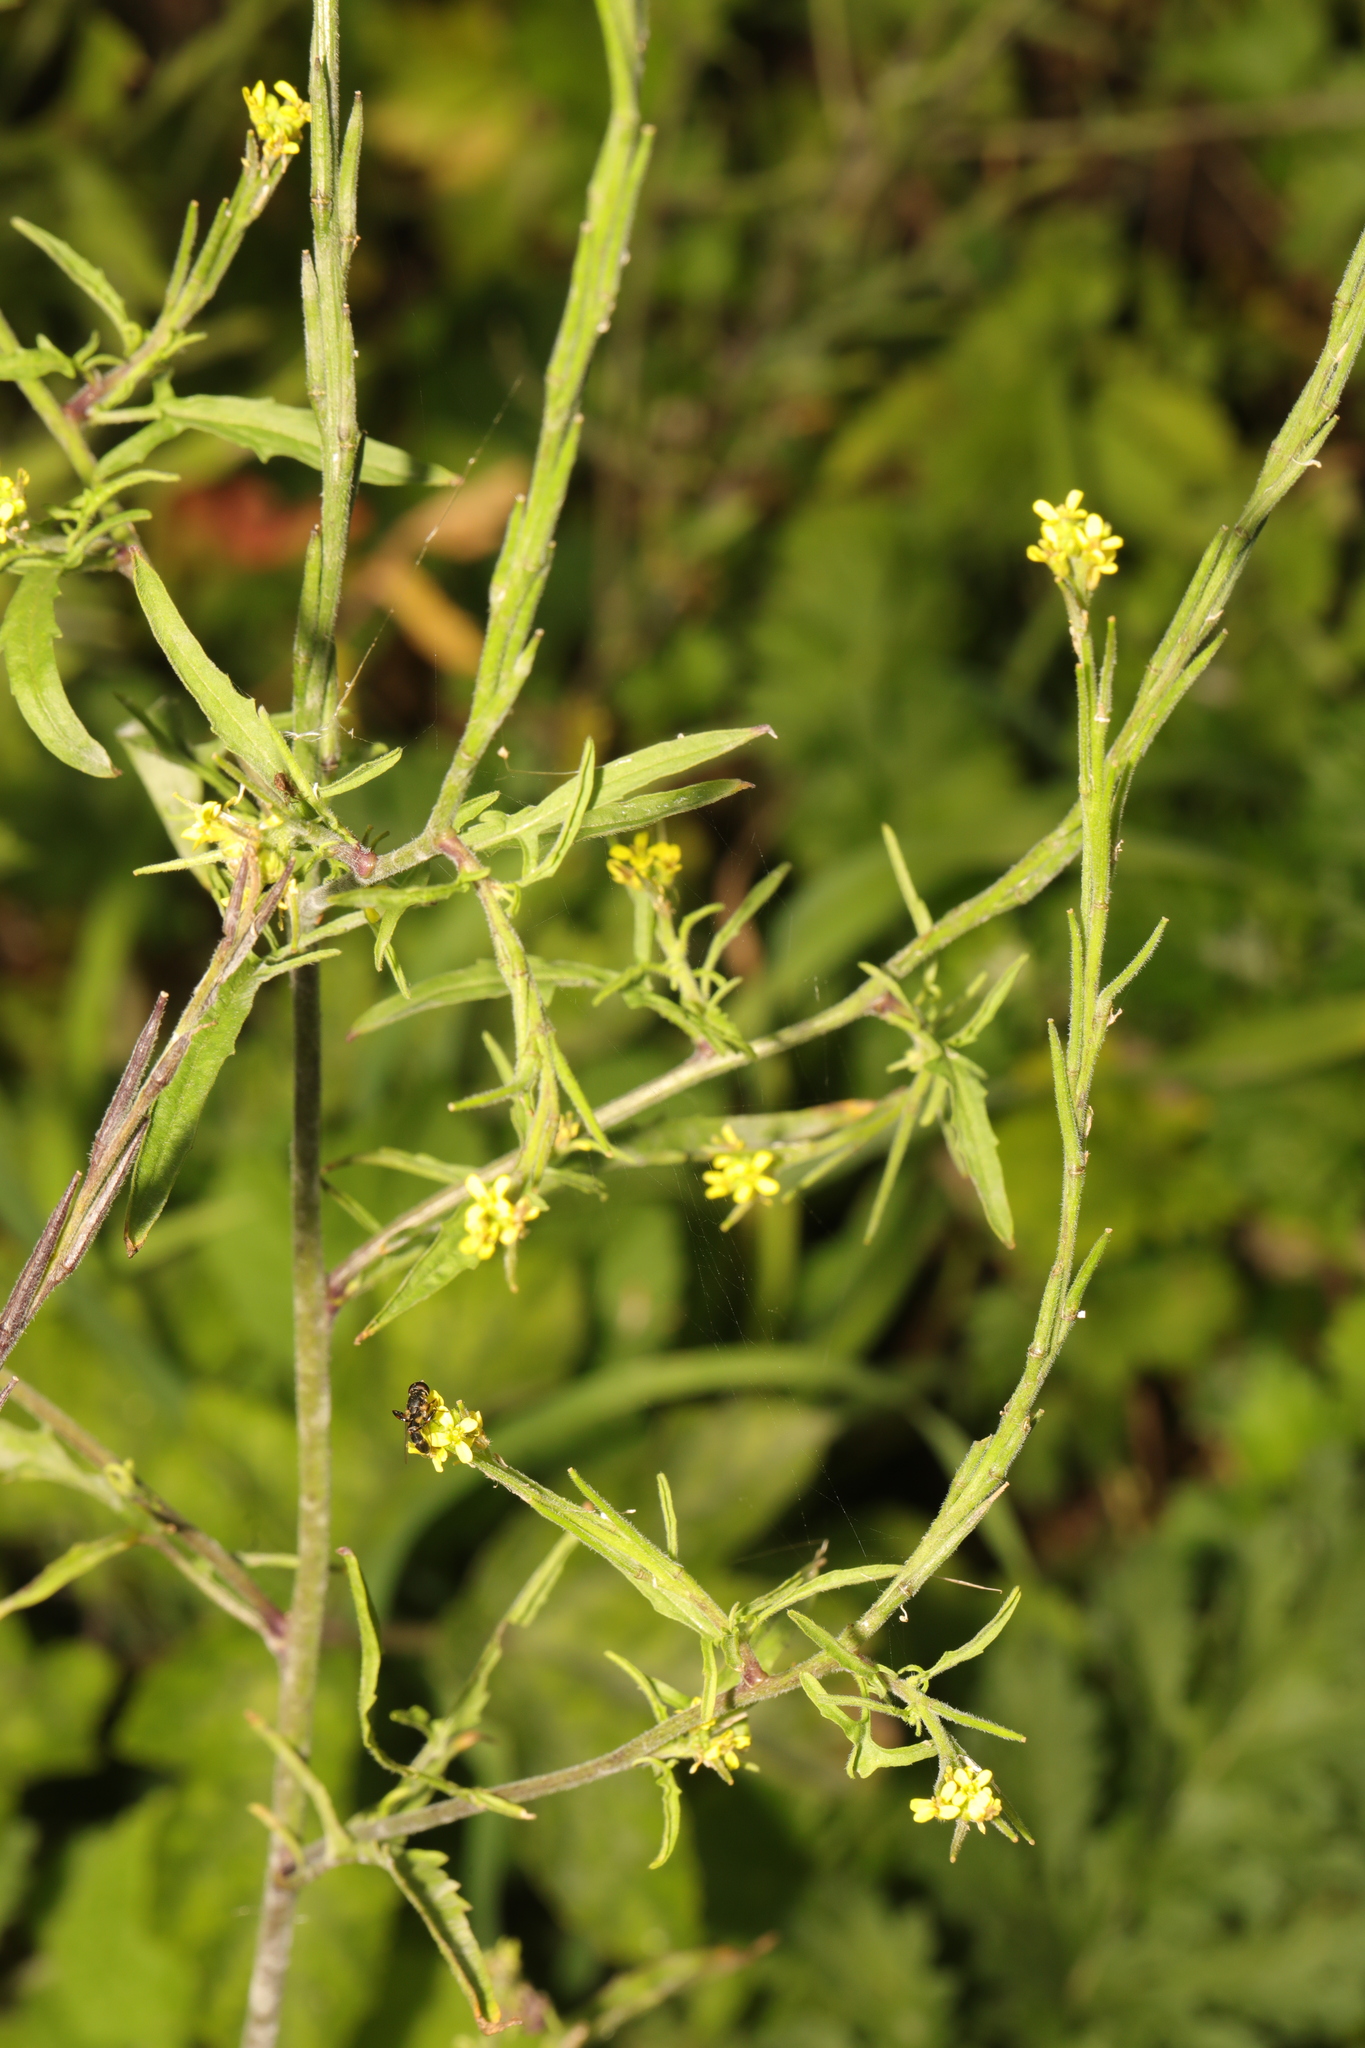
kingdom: Plantae
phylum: Tracheophyta
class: Magnoliopsida
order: Brassicales
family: Brassicaceae
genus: Sisymbrium
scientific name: Sisymbrium officinale
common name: Hedge mustard
